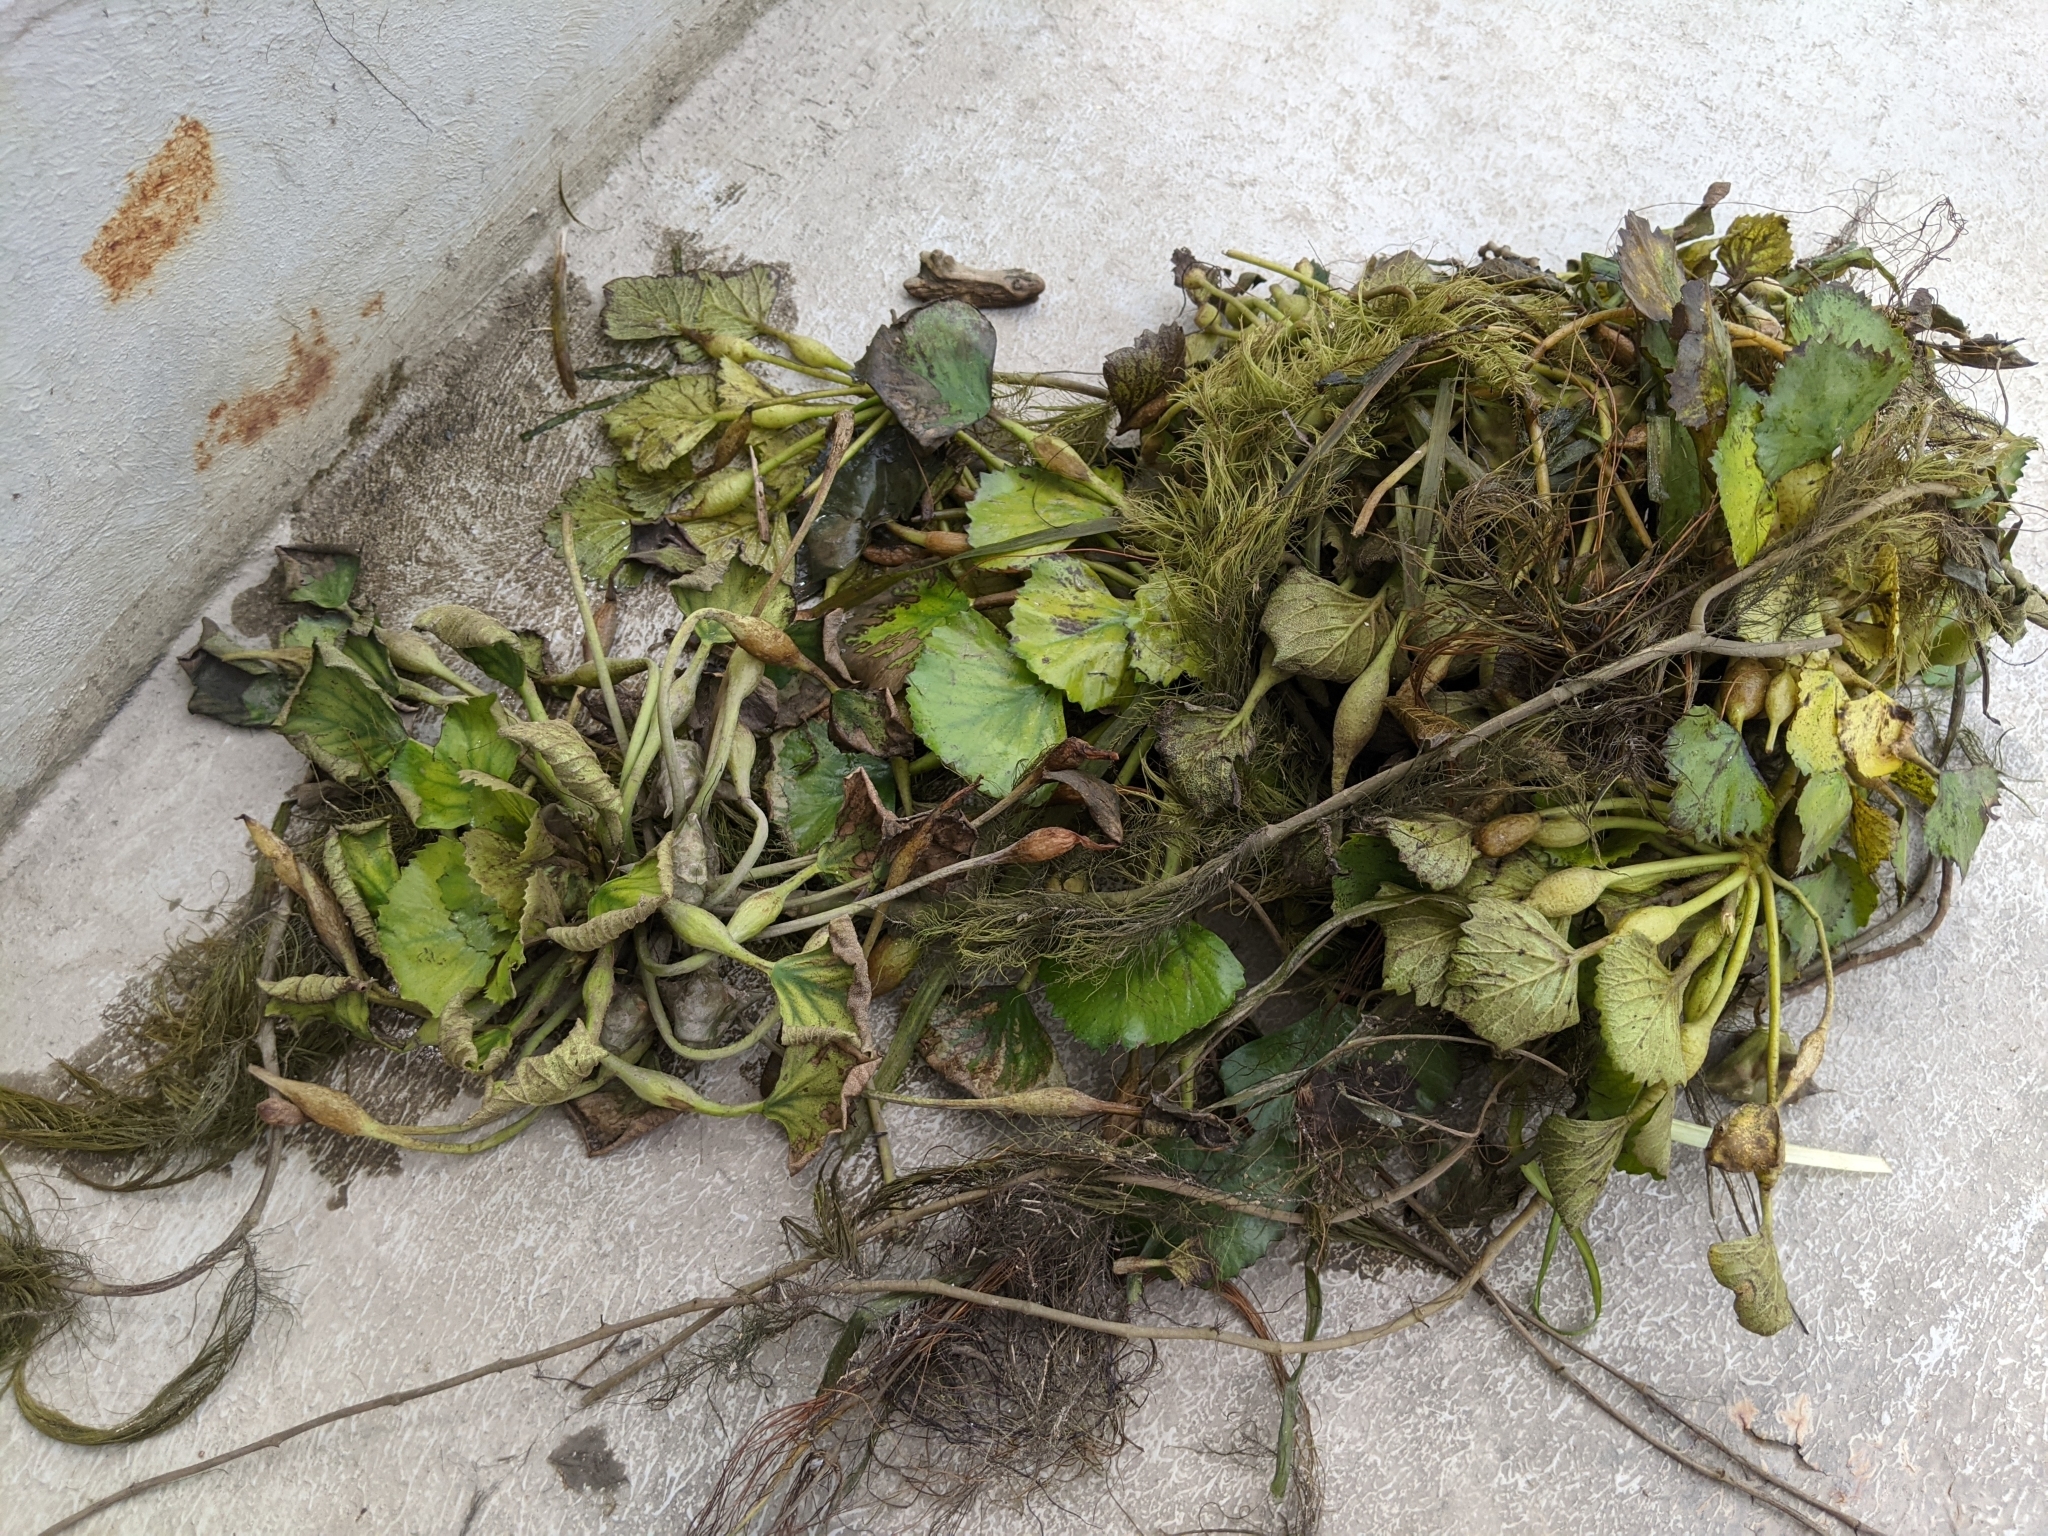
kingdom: Plantae
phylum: Tracheophyta
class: Magnoliopsida
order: Myrtales
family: Lythraceae
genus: Trapa
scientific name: Trapa natans
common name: Water chestnut
